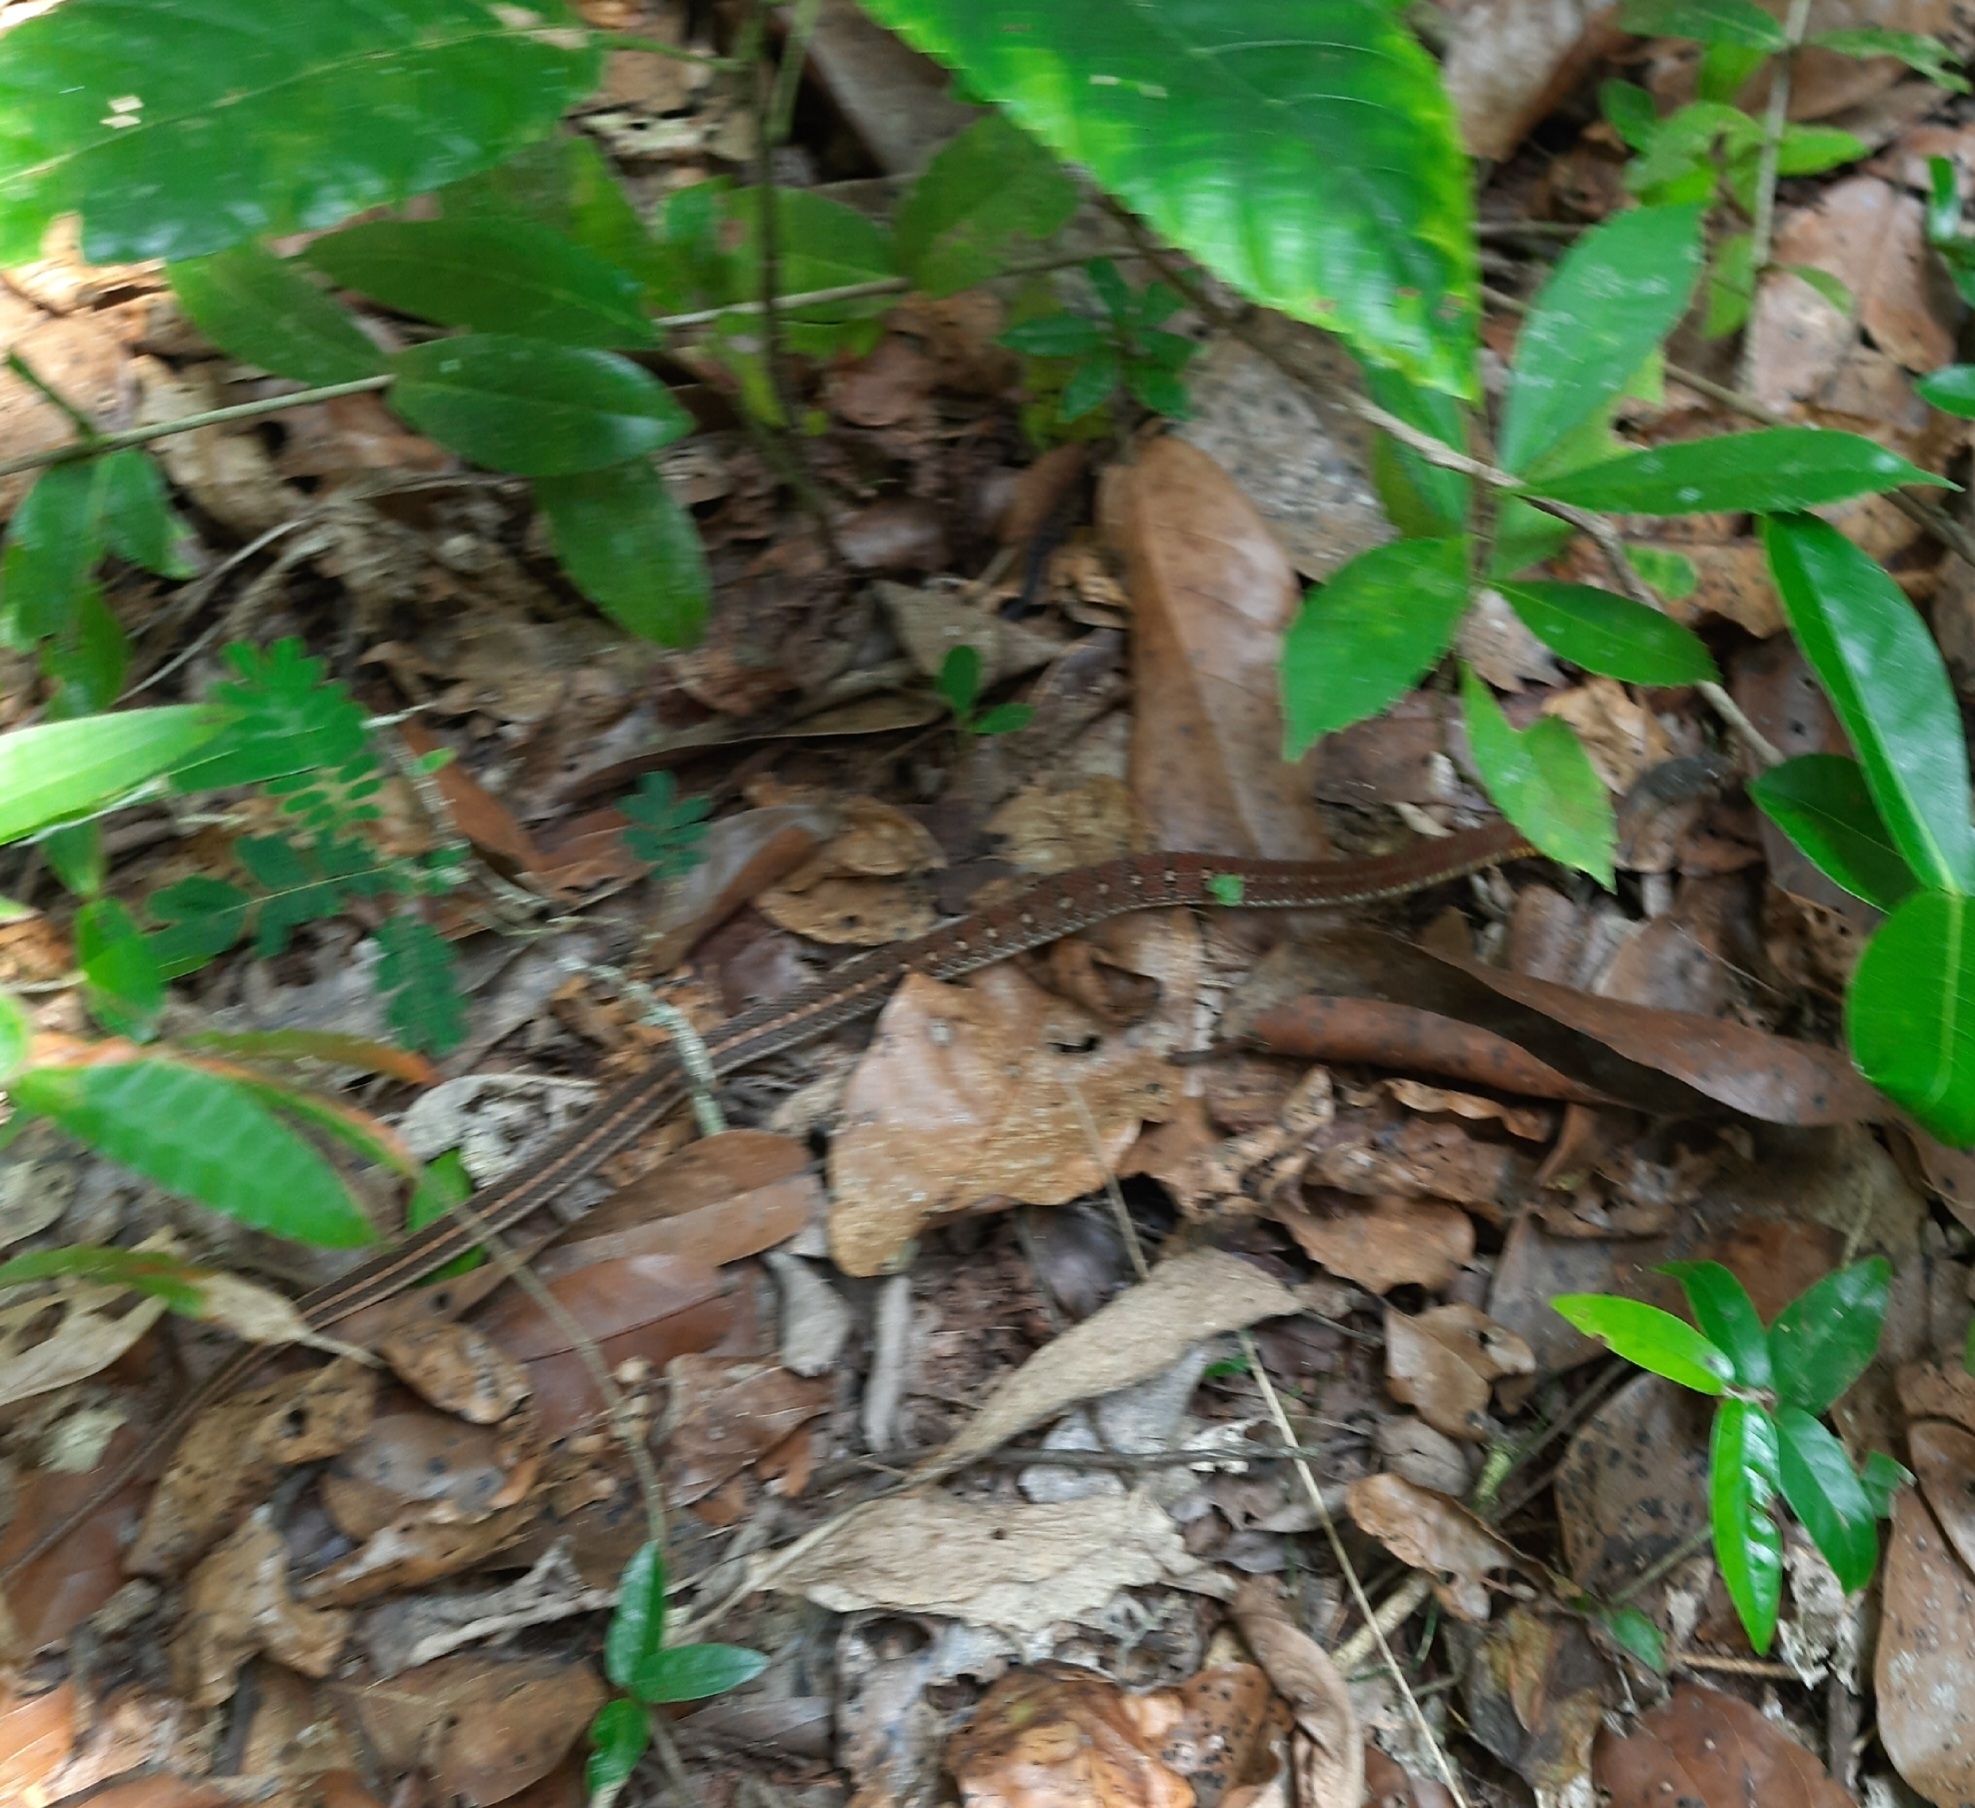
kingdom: Animalia
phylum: Chordata
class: Squamata
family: Colubridae
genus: Amphiesma
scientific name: Amphiesma stolatum
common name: Buff striped keelback
